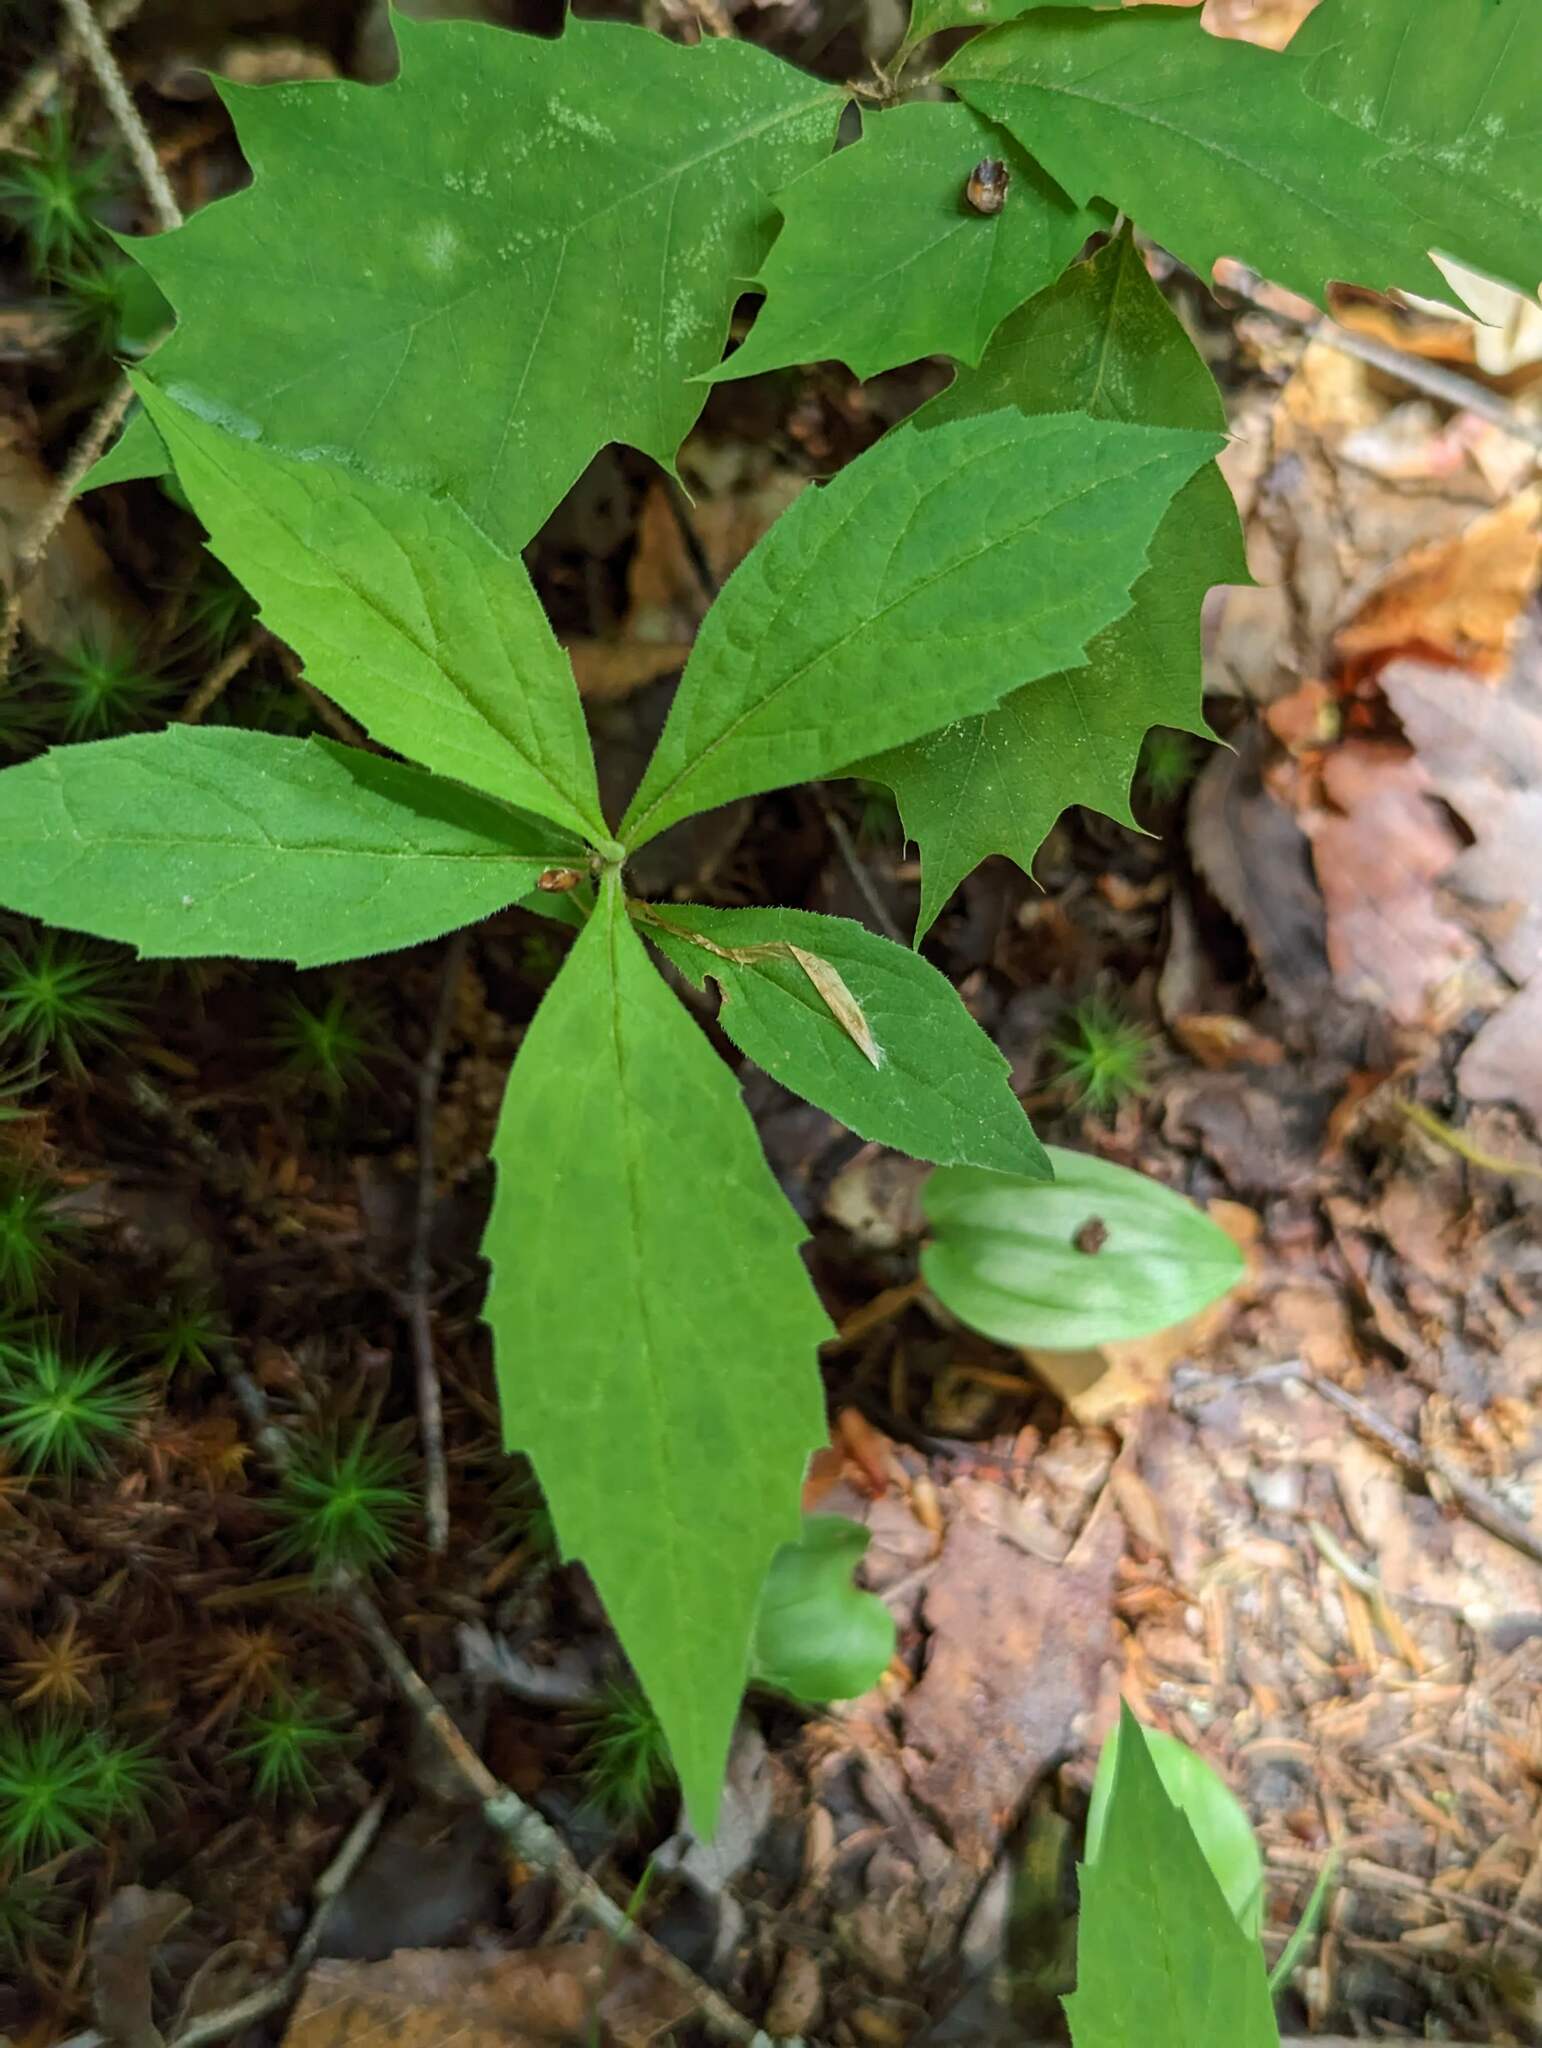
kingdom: Plantae
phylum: Tracheophyta
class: Magnoliopsida
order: Asterales
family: Asteraceae
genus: Oclemena
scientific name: Oclemena acuminata
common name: Mountain aster
